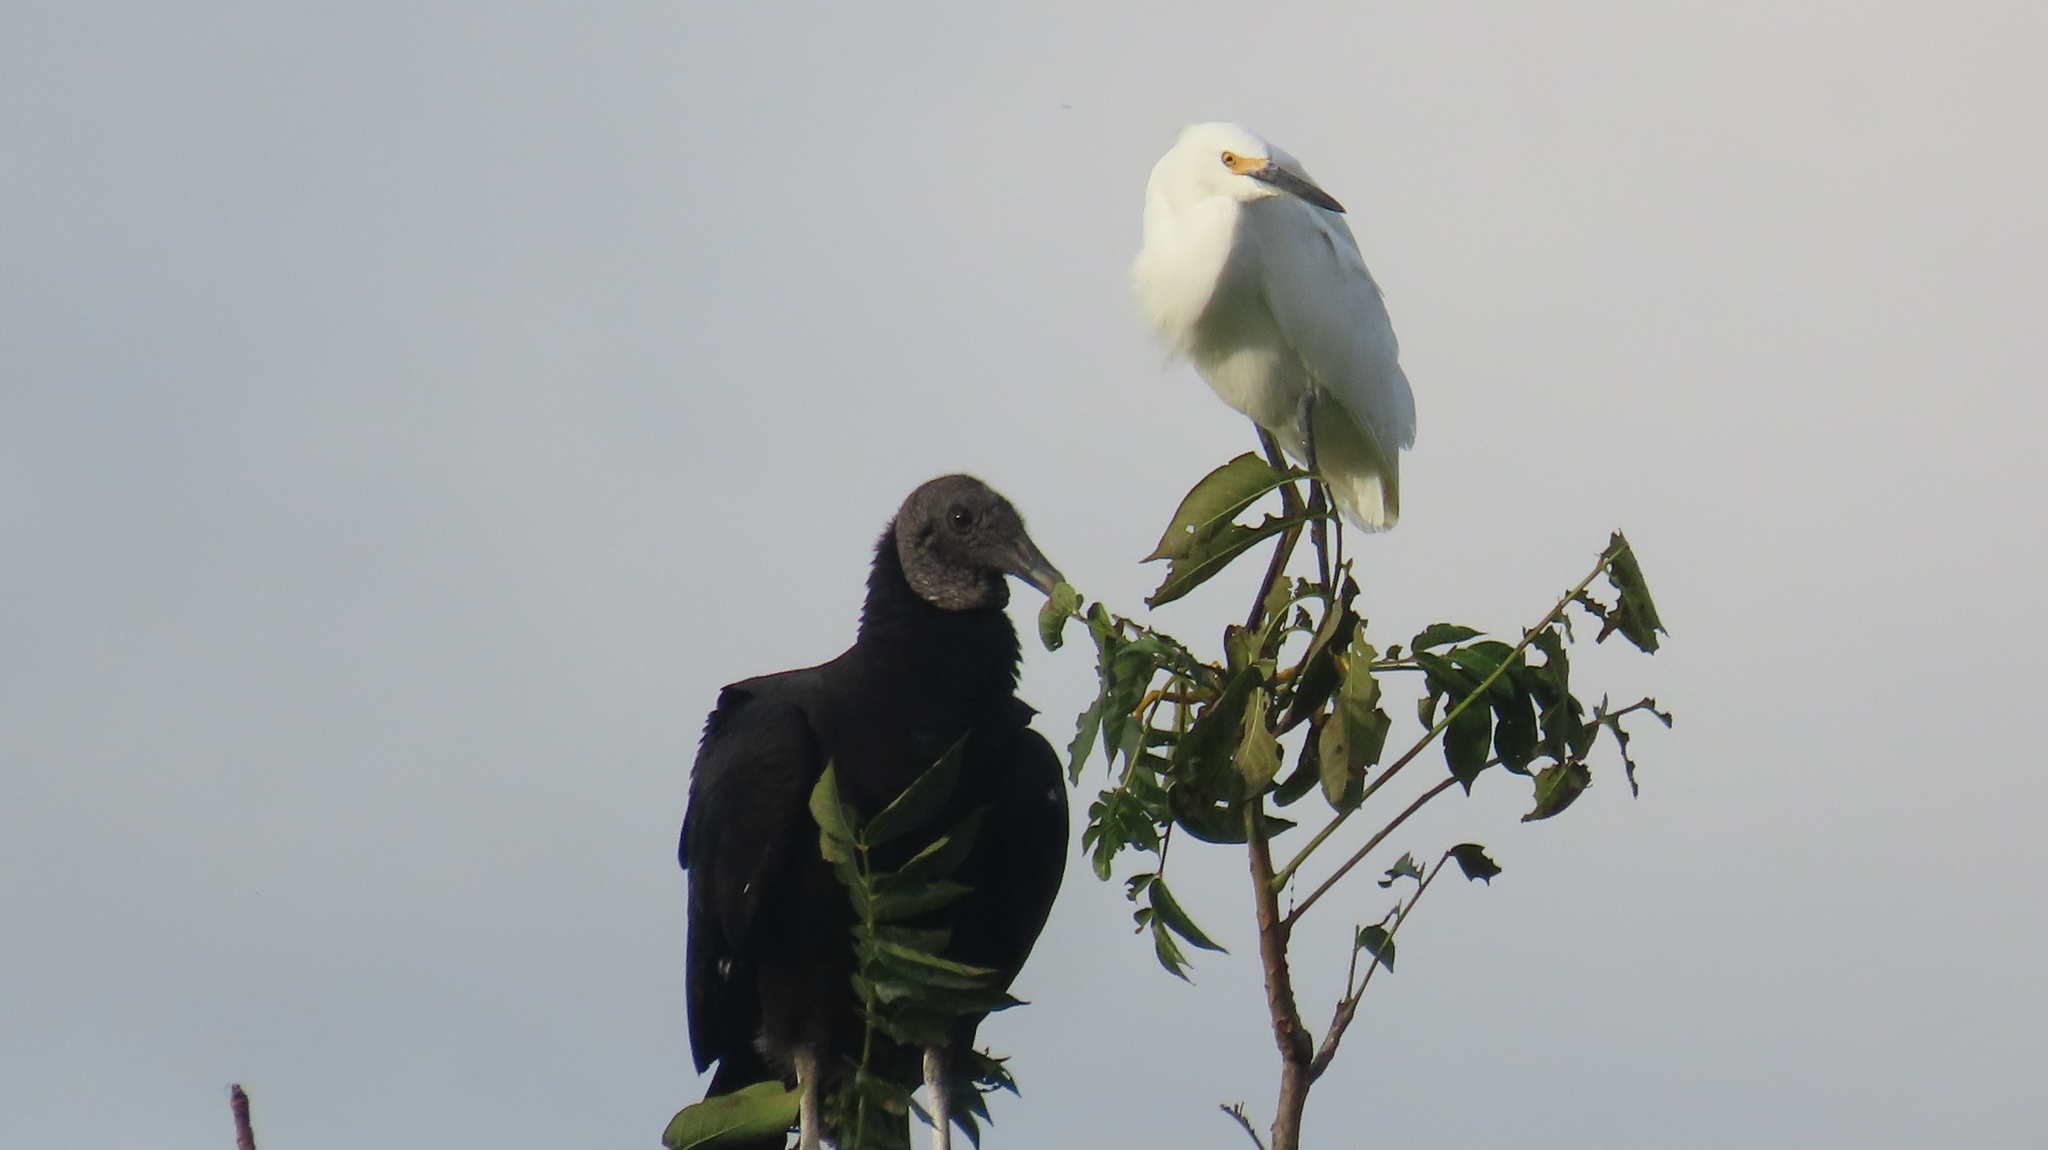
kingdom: Animalia
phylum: Chordata
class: Aves
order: Accipitriformes
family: Cathartidae
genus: Coragyps
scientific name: Coragyps atratus
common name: Black vulture
